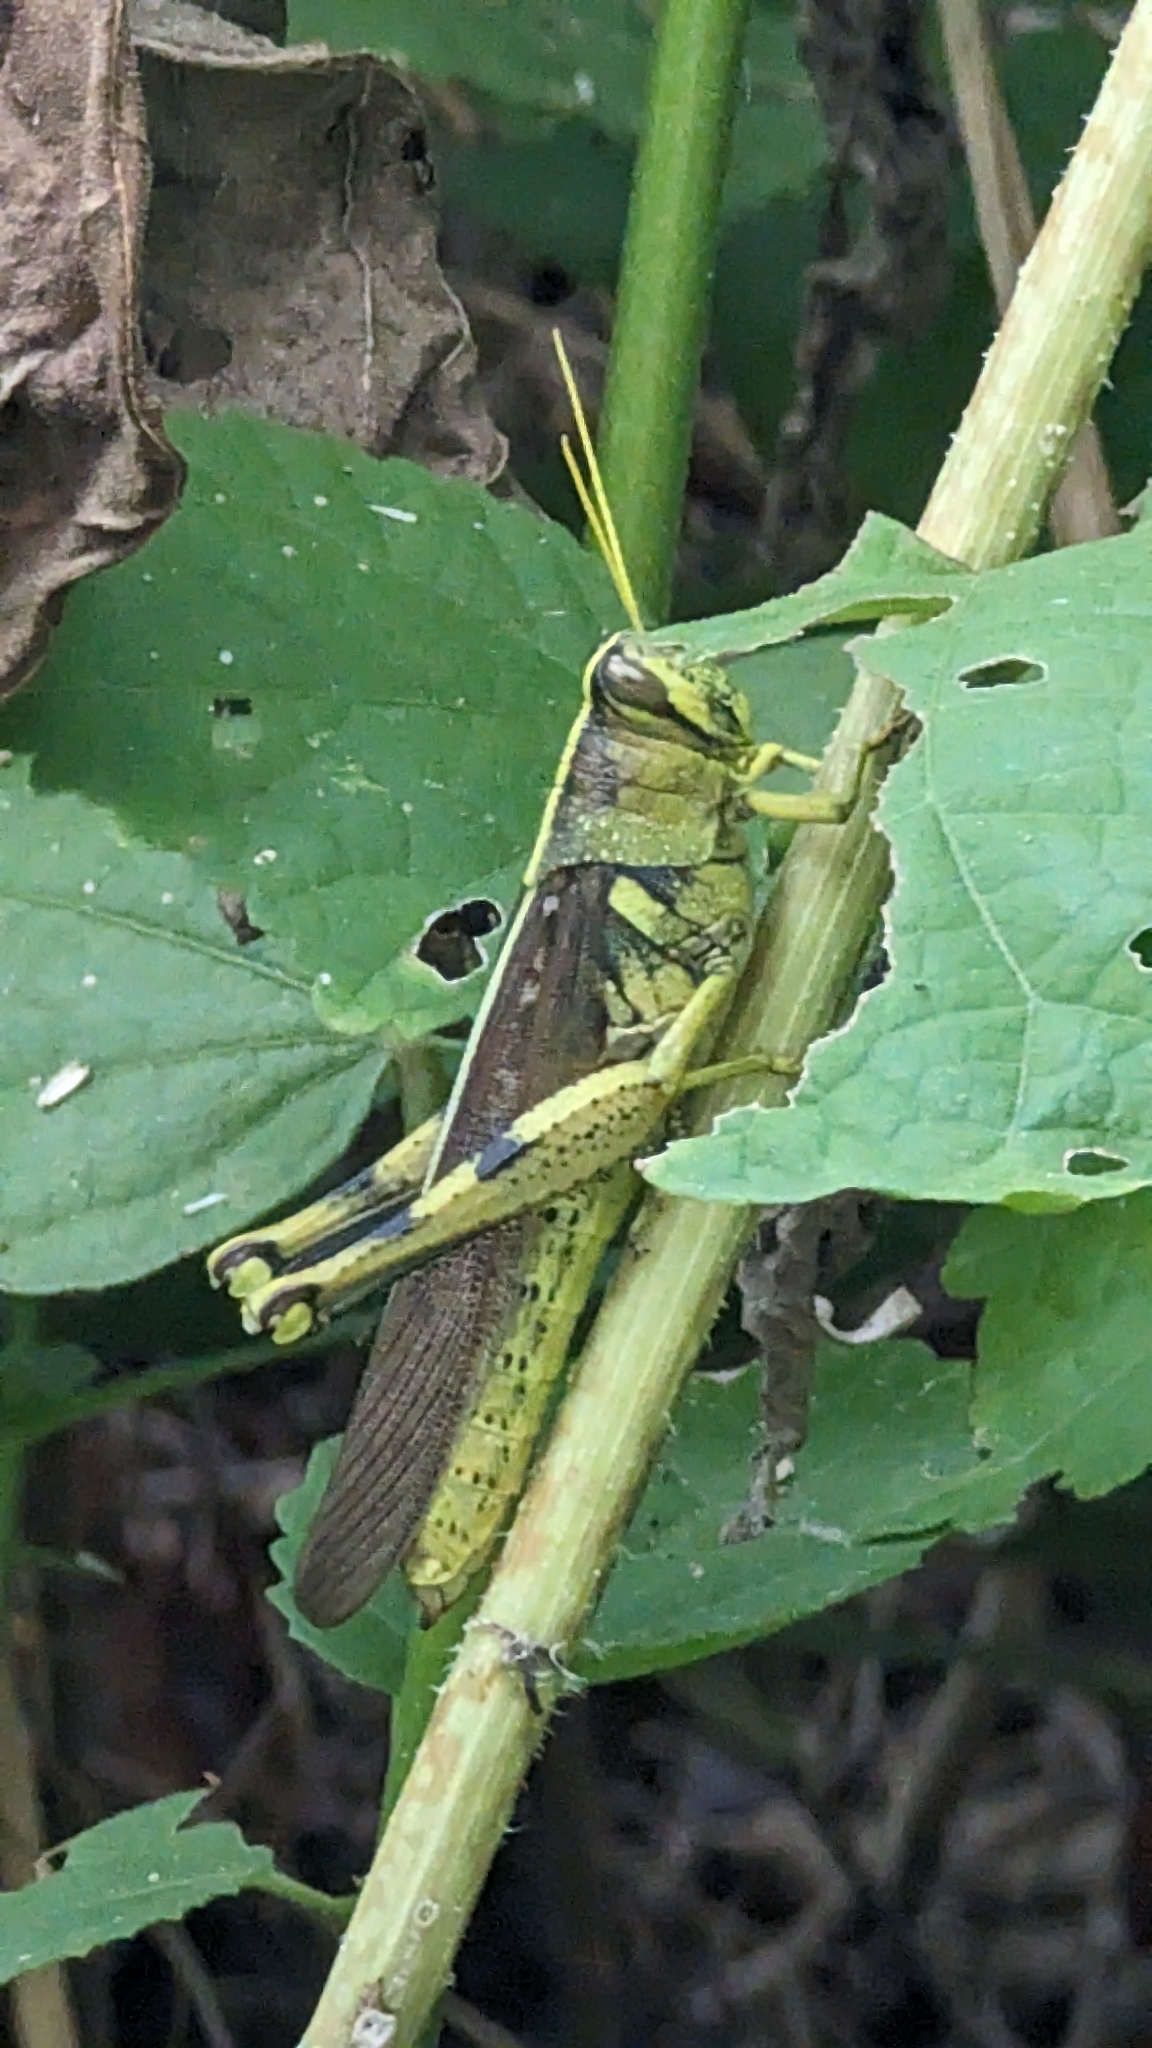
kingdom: Animalia
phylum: Arthropoda
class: Insecta
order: Orthoptera
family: Acrididae
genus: Schistocerca
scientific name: Schistocerca obscura
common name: Obscure bird grasshopper
